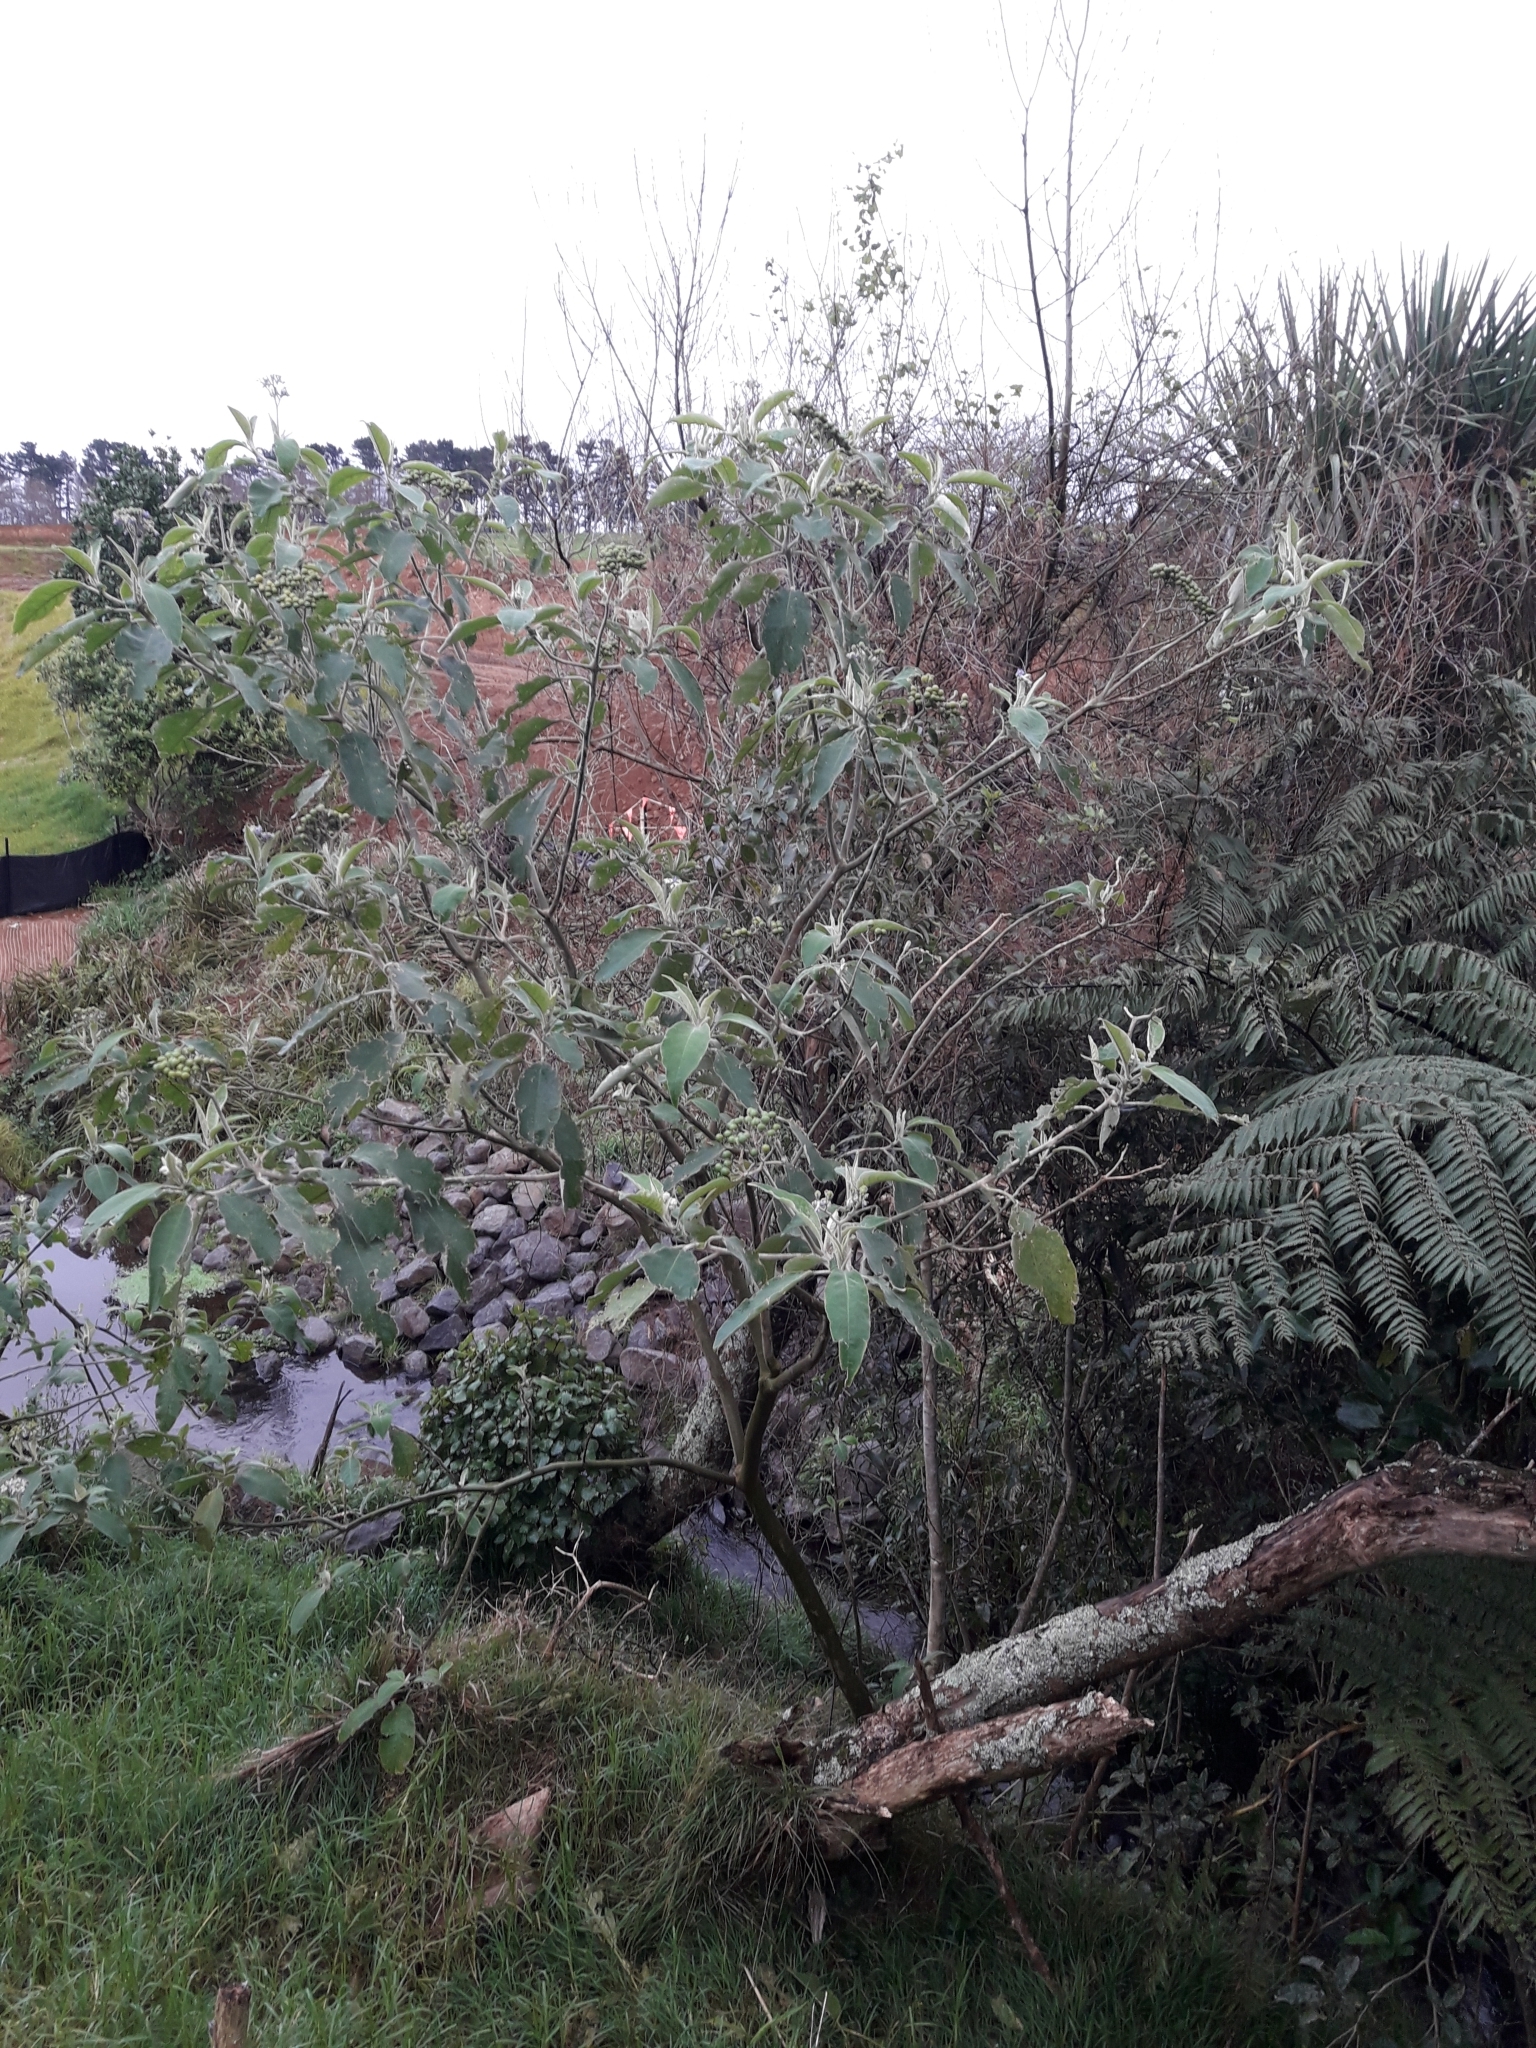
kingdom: Plantae
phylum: Tracheophyta
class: Magnoliopsida
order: Solanales
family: Solanaceae
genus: Solanum
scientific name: Solanum mauritianum
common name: Earleaf nightshade
